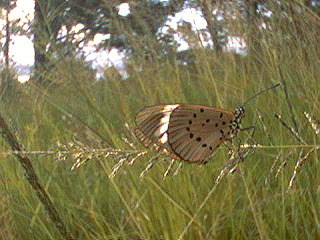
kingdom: Animalia
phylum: Arthropoda
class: Insecta
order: Lepidoptera
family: Nymphalidae
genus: Acraea
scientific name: Acraea Telchinia encedon
